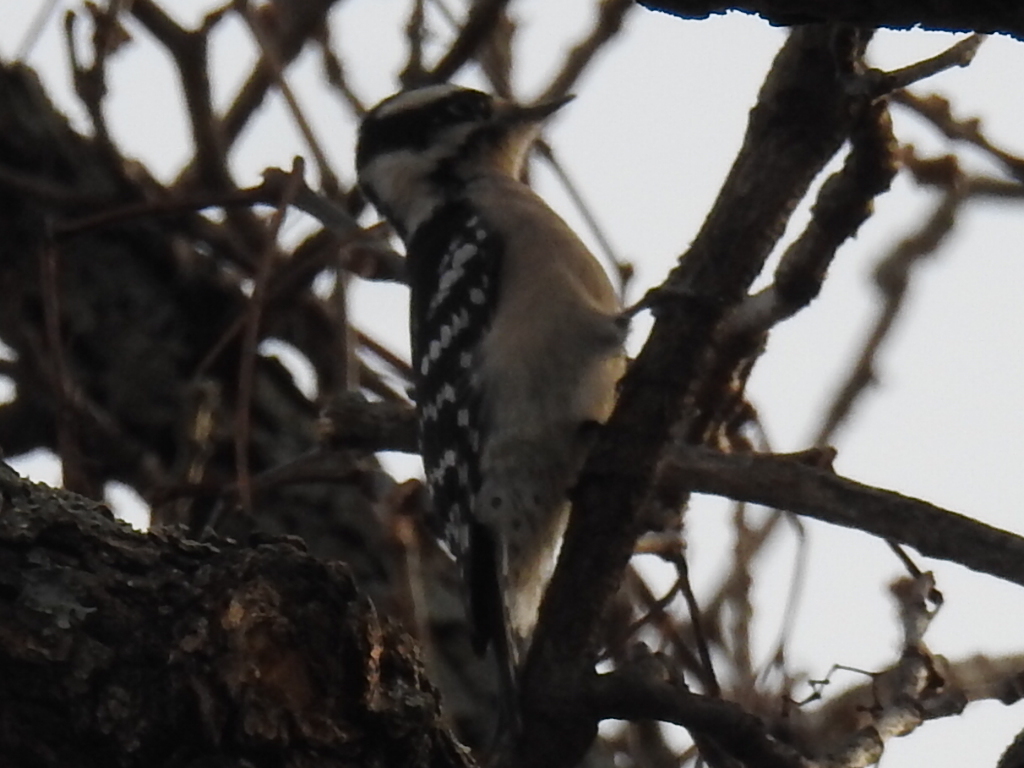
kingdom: Animalia
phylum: Chordata
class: Aves
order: Piciformes
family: Picidae
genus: Dryobates
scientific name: Dryobates pubescens
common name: Downy woodpecker
